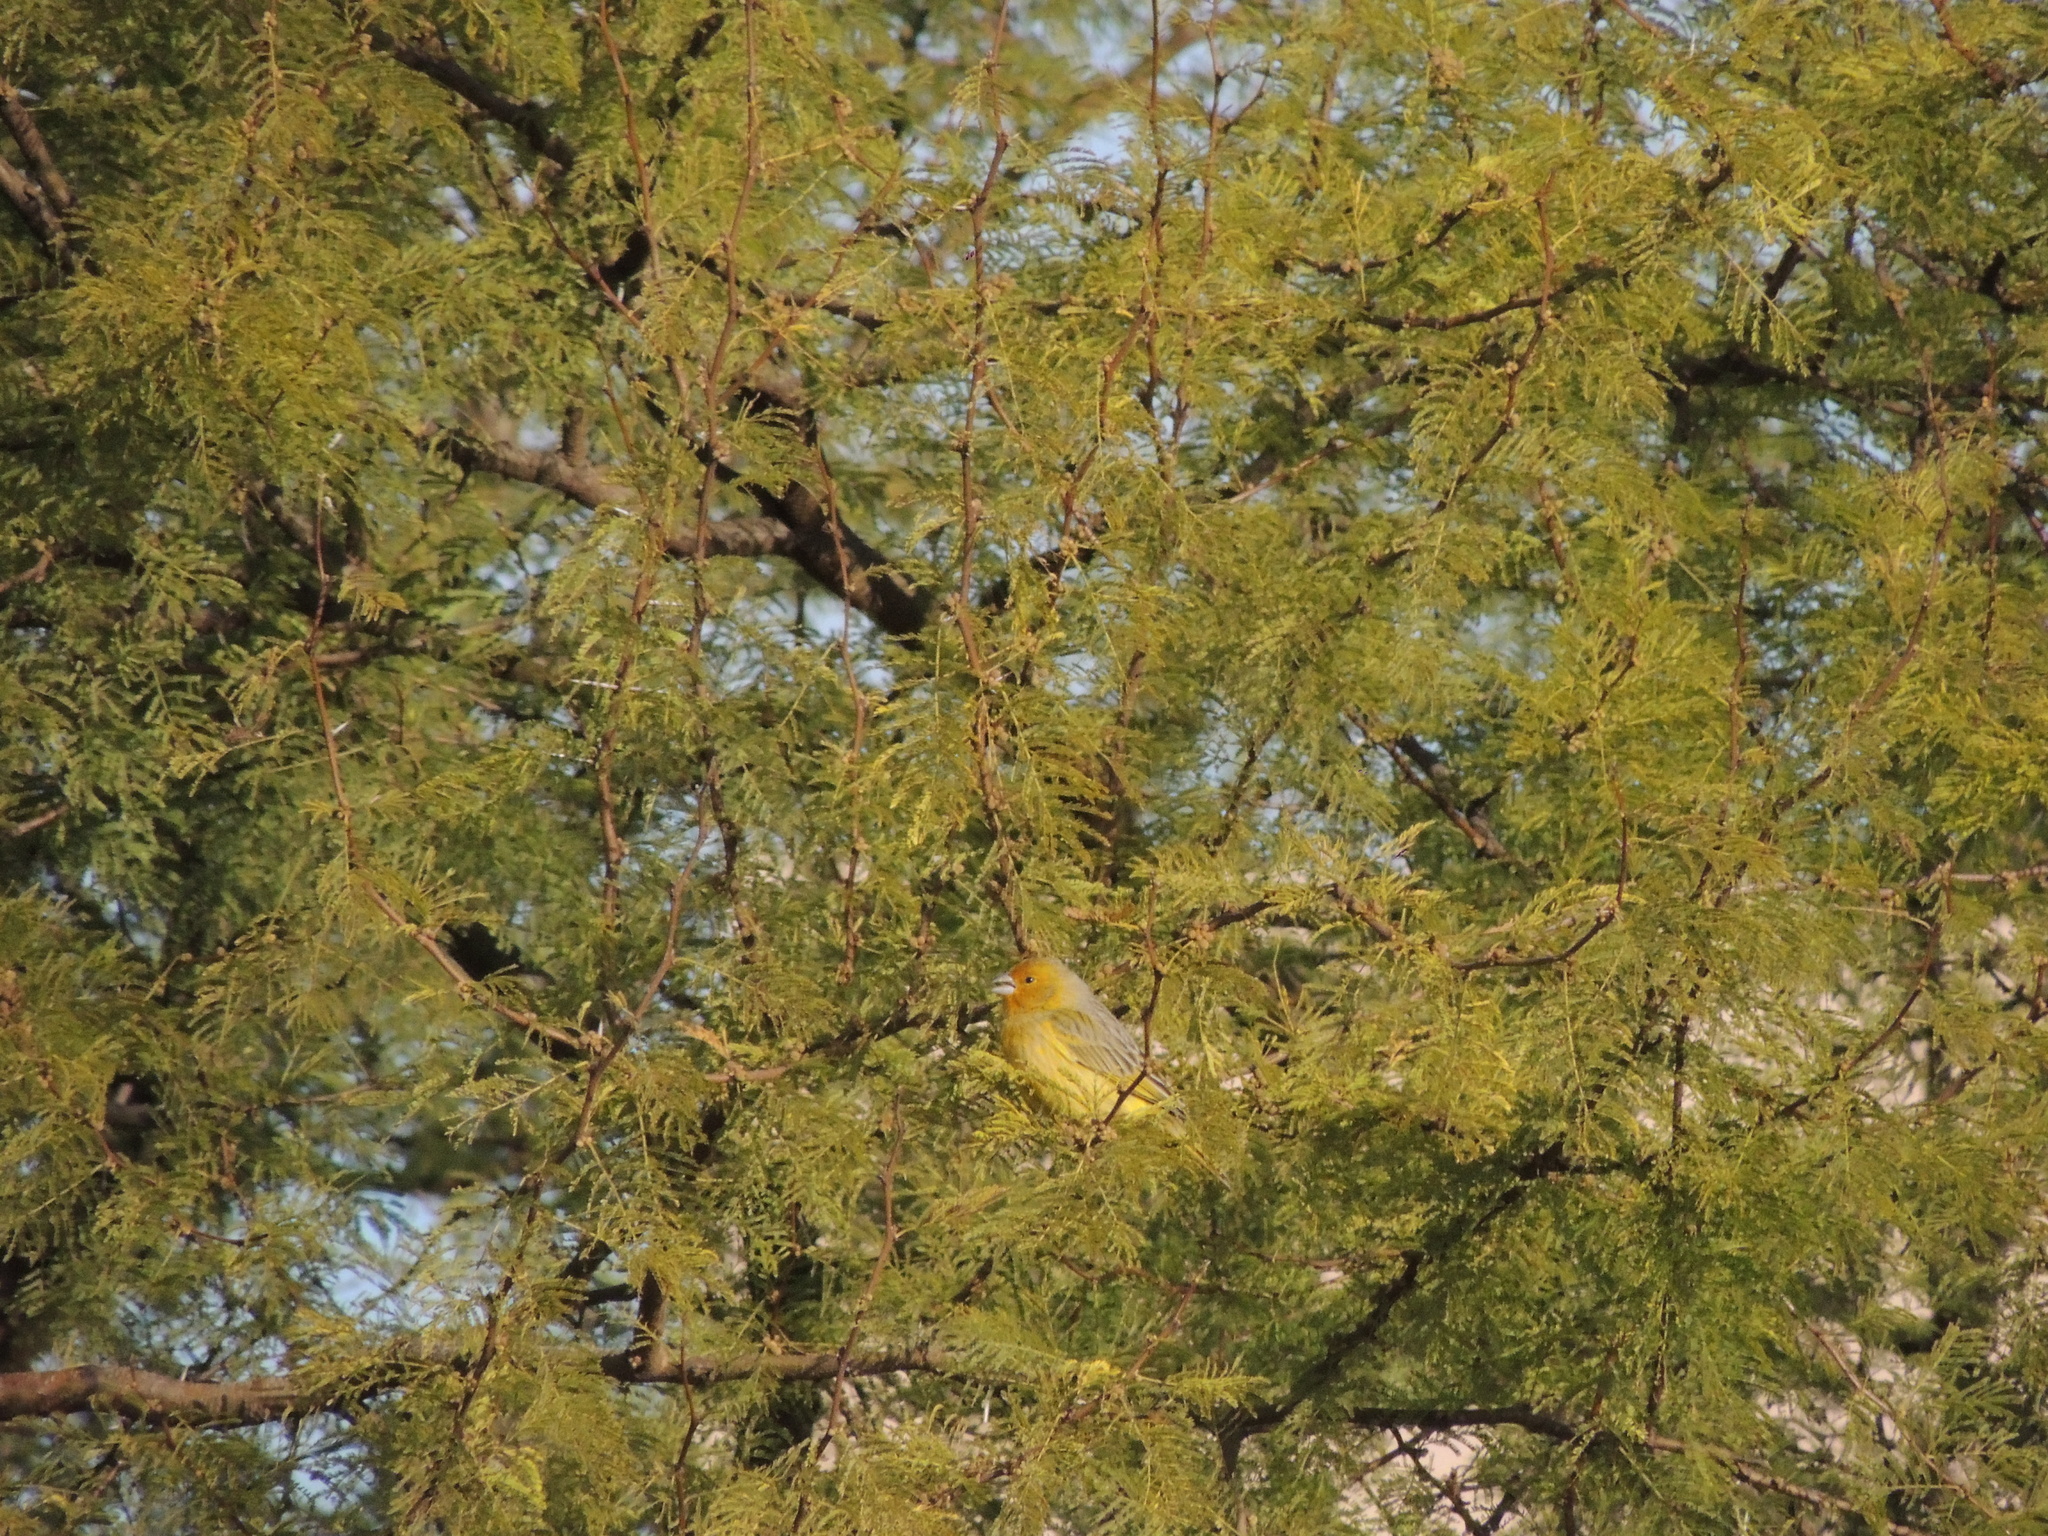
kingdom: Animalia
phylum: Chordata
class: Aves
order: Passeriformes
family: Thraupidae
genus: Sicalis
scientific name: Sicalis flaveola
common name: Saffron finch
